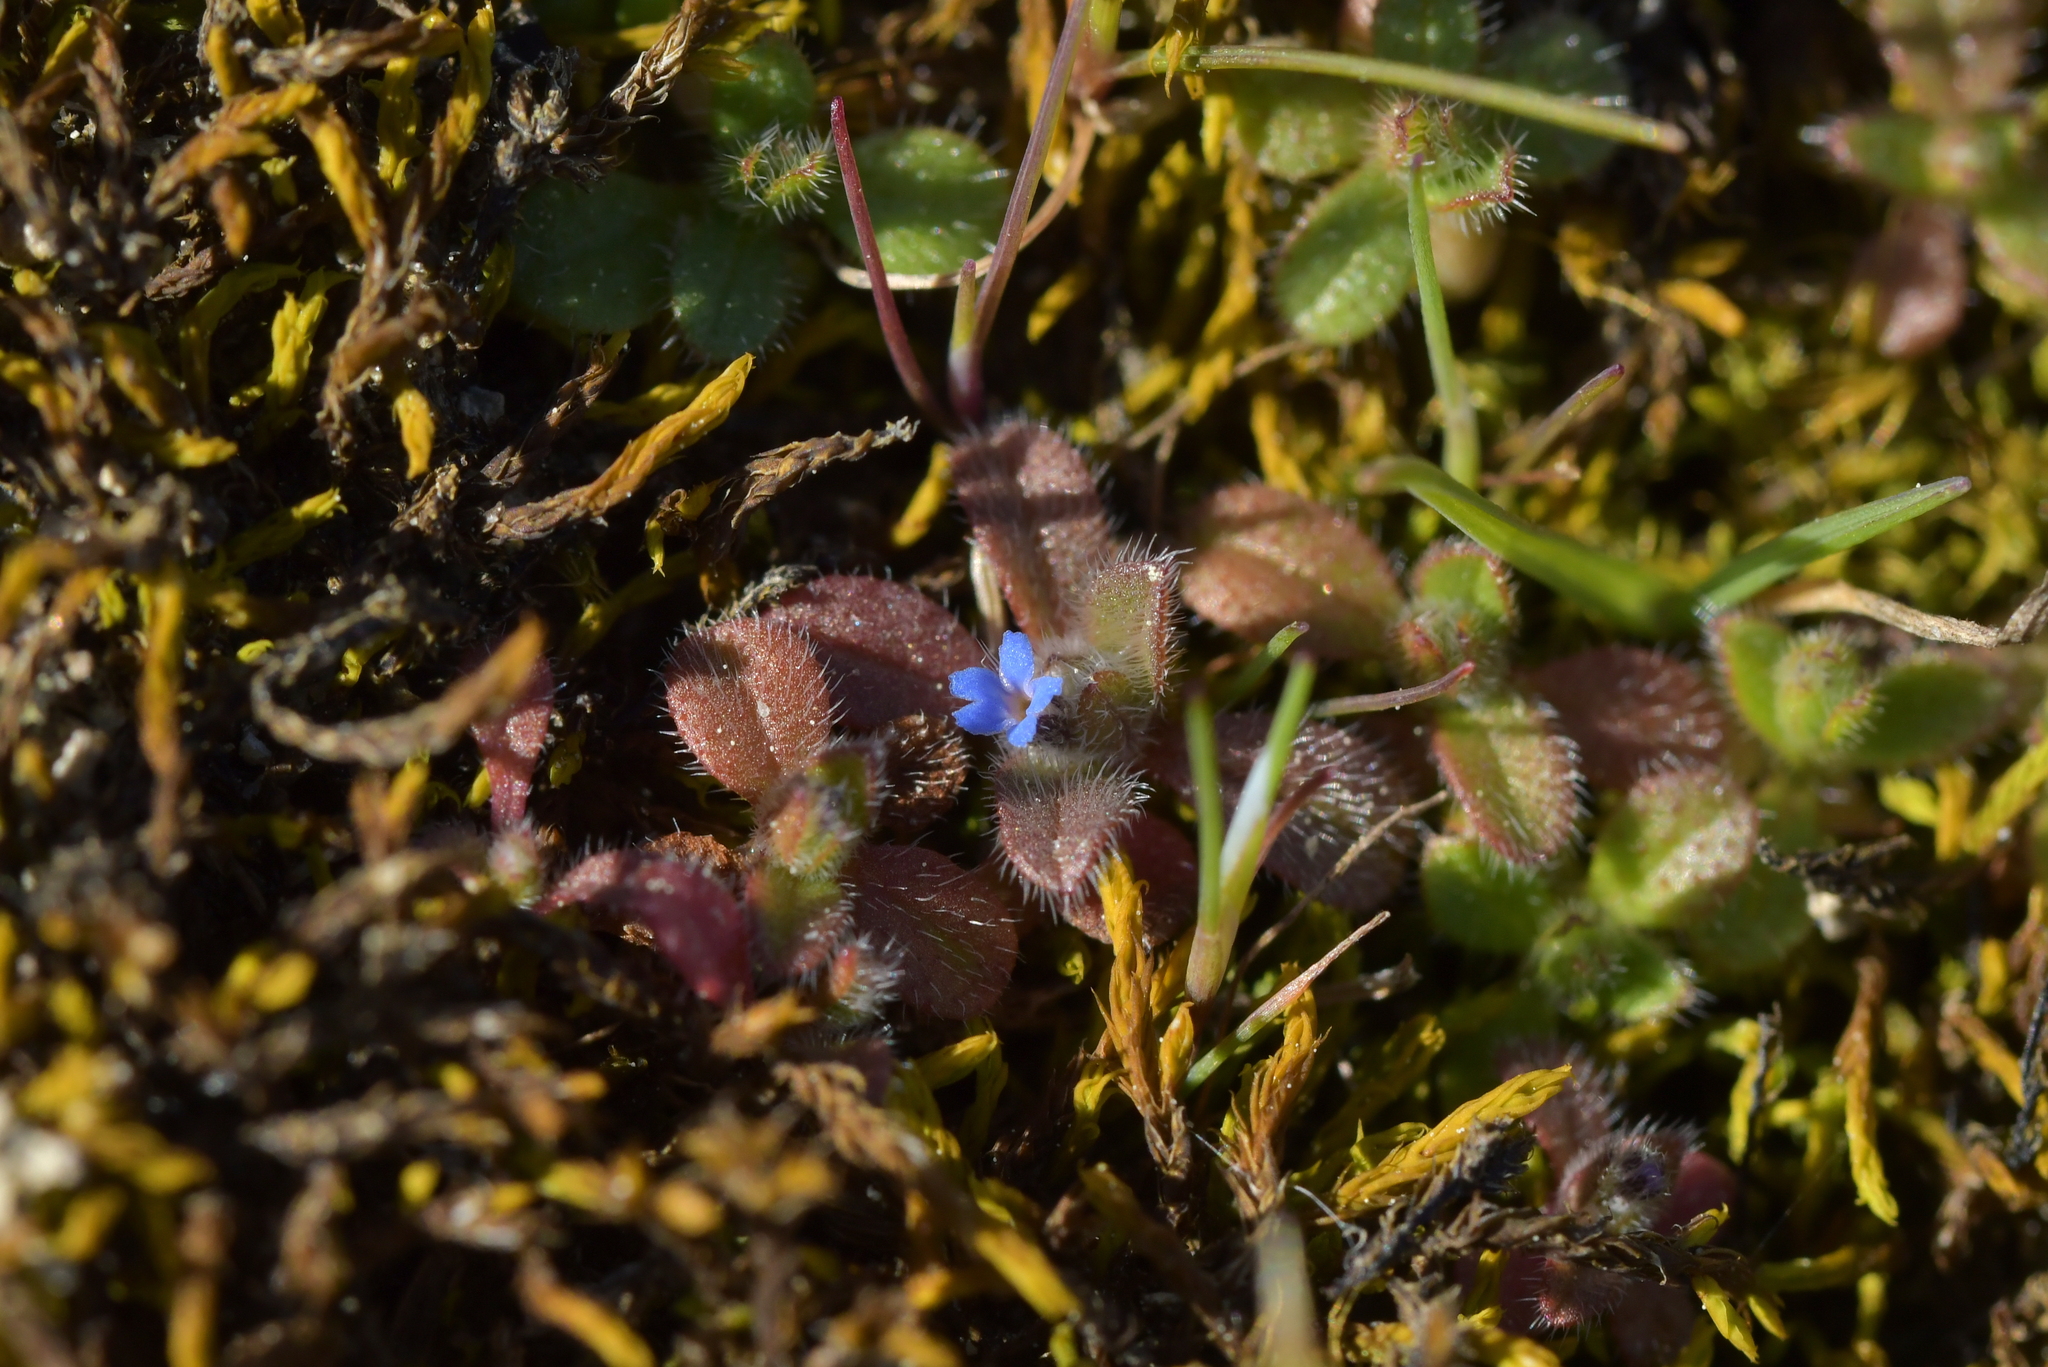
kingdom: Plantae
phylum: Tracheophyta
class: Magnoliopsida
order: Boraginales
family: Boraginaceae
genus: Myosotis
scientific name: Myosotis stricta
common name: Strict forget-me-not
